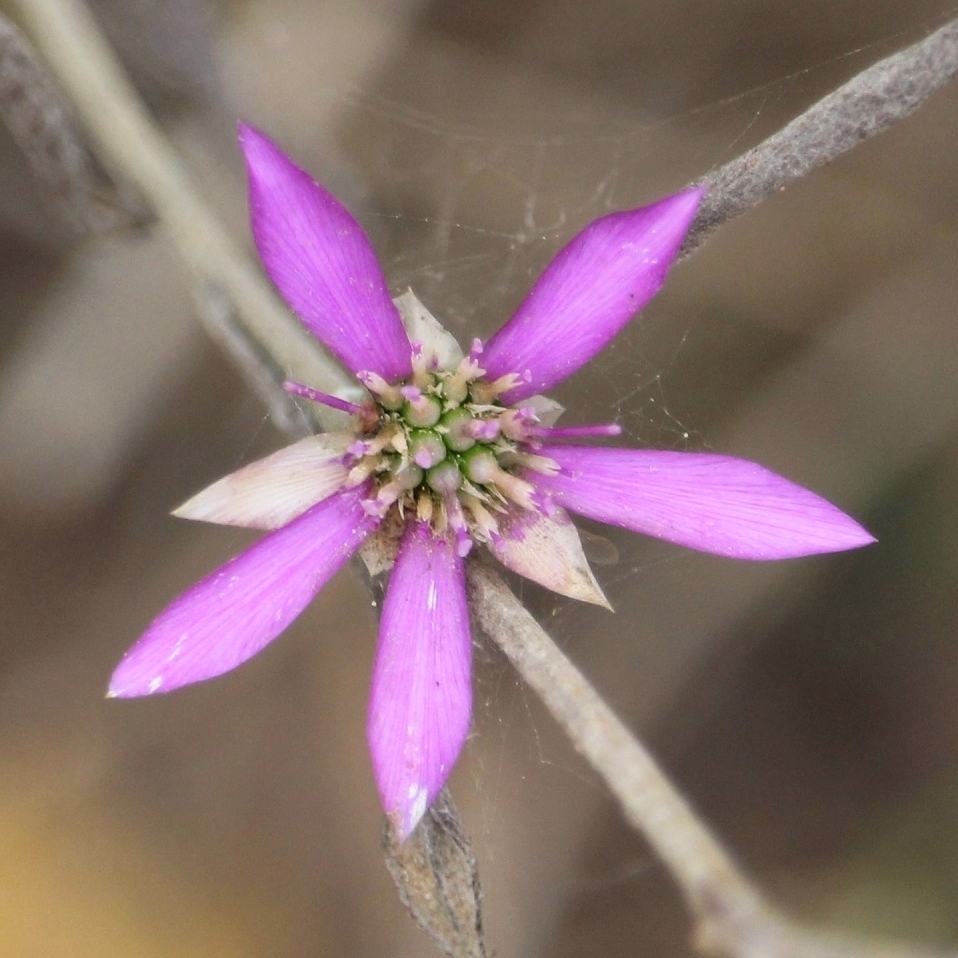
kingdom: Plantae
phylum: Tracheophyta
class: Magnoliopsida
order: Asterales
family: Asteraceae
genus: Xeranthemum
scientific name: Xeranthemum annuum
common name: Immortelle
